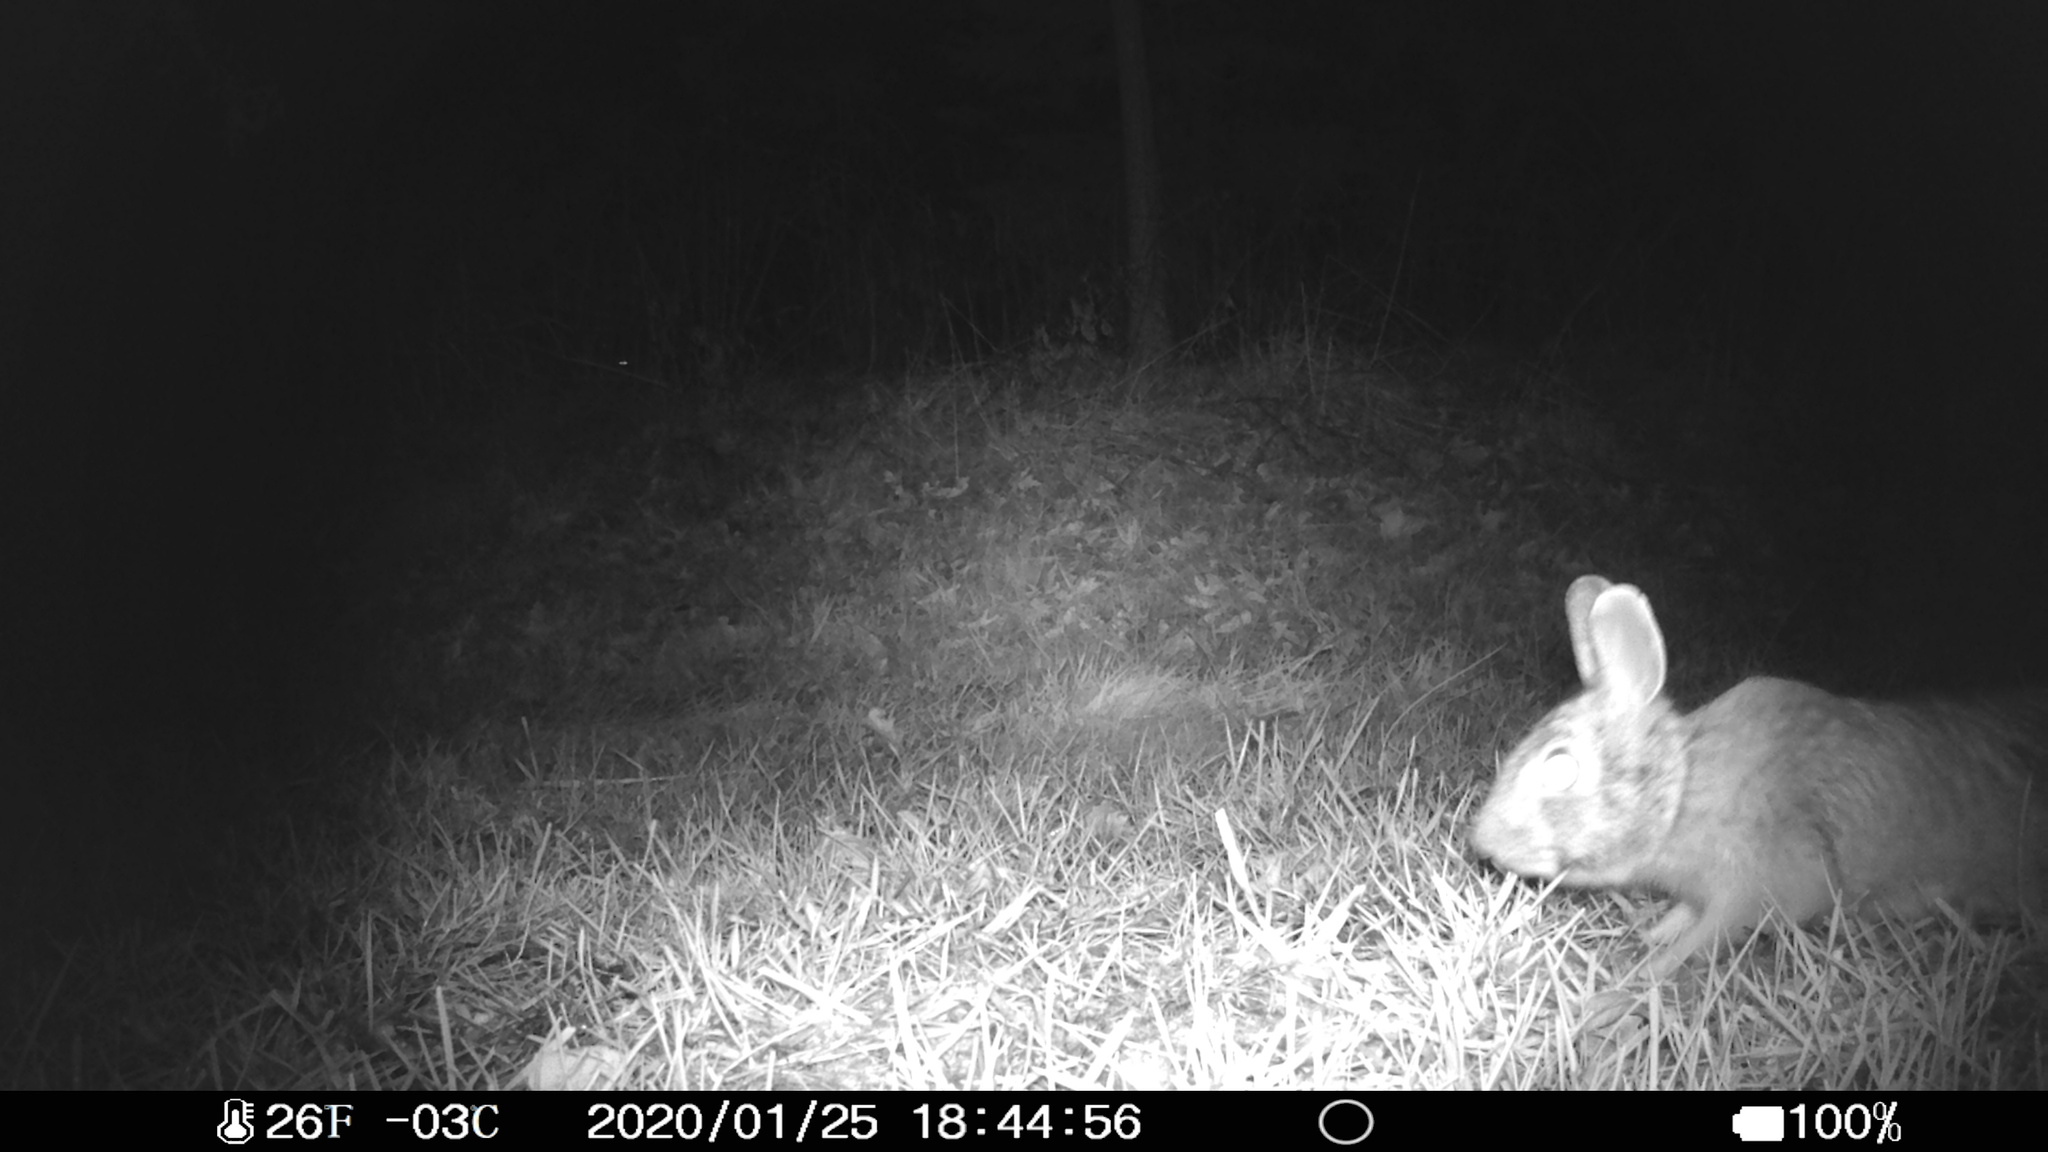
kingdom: Animalia
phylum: Chordata
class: Mammalia
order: Lagomorpha
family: Leporidae
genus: Sylvilagus
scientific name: Sylvilagus floridanus
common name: Eastern cottontail
